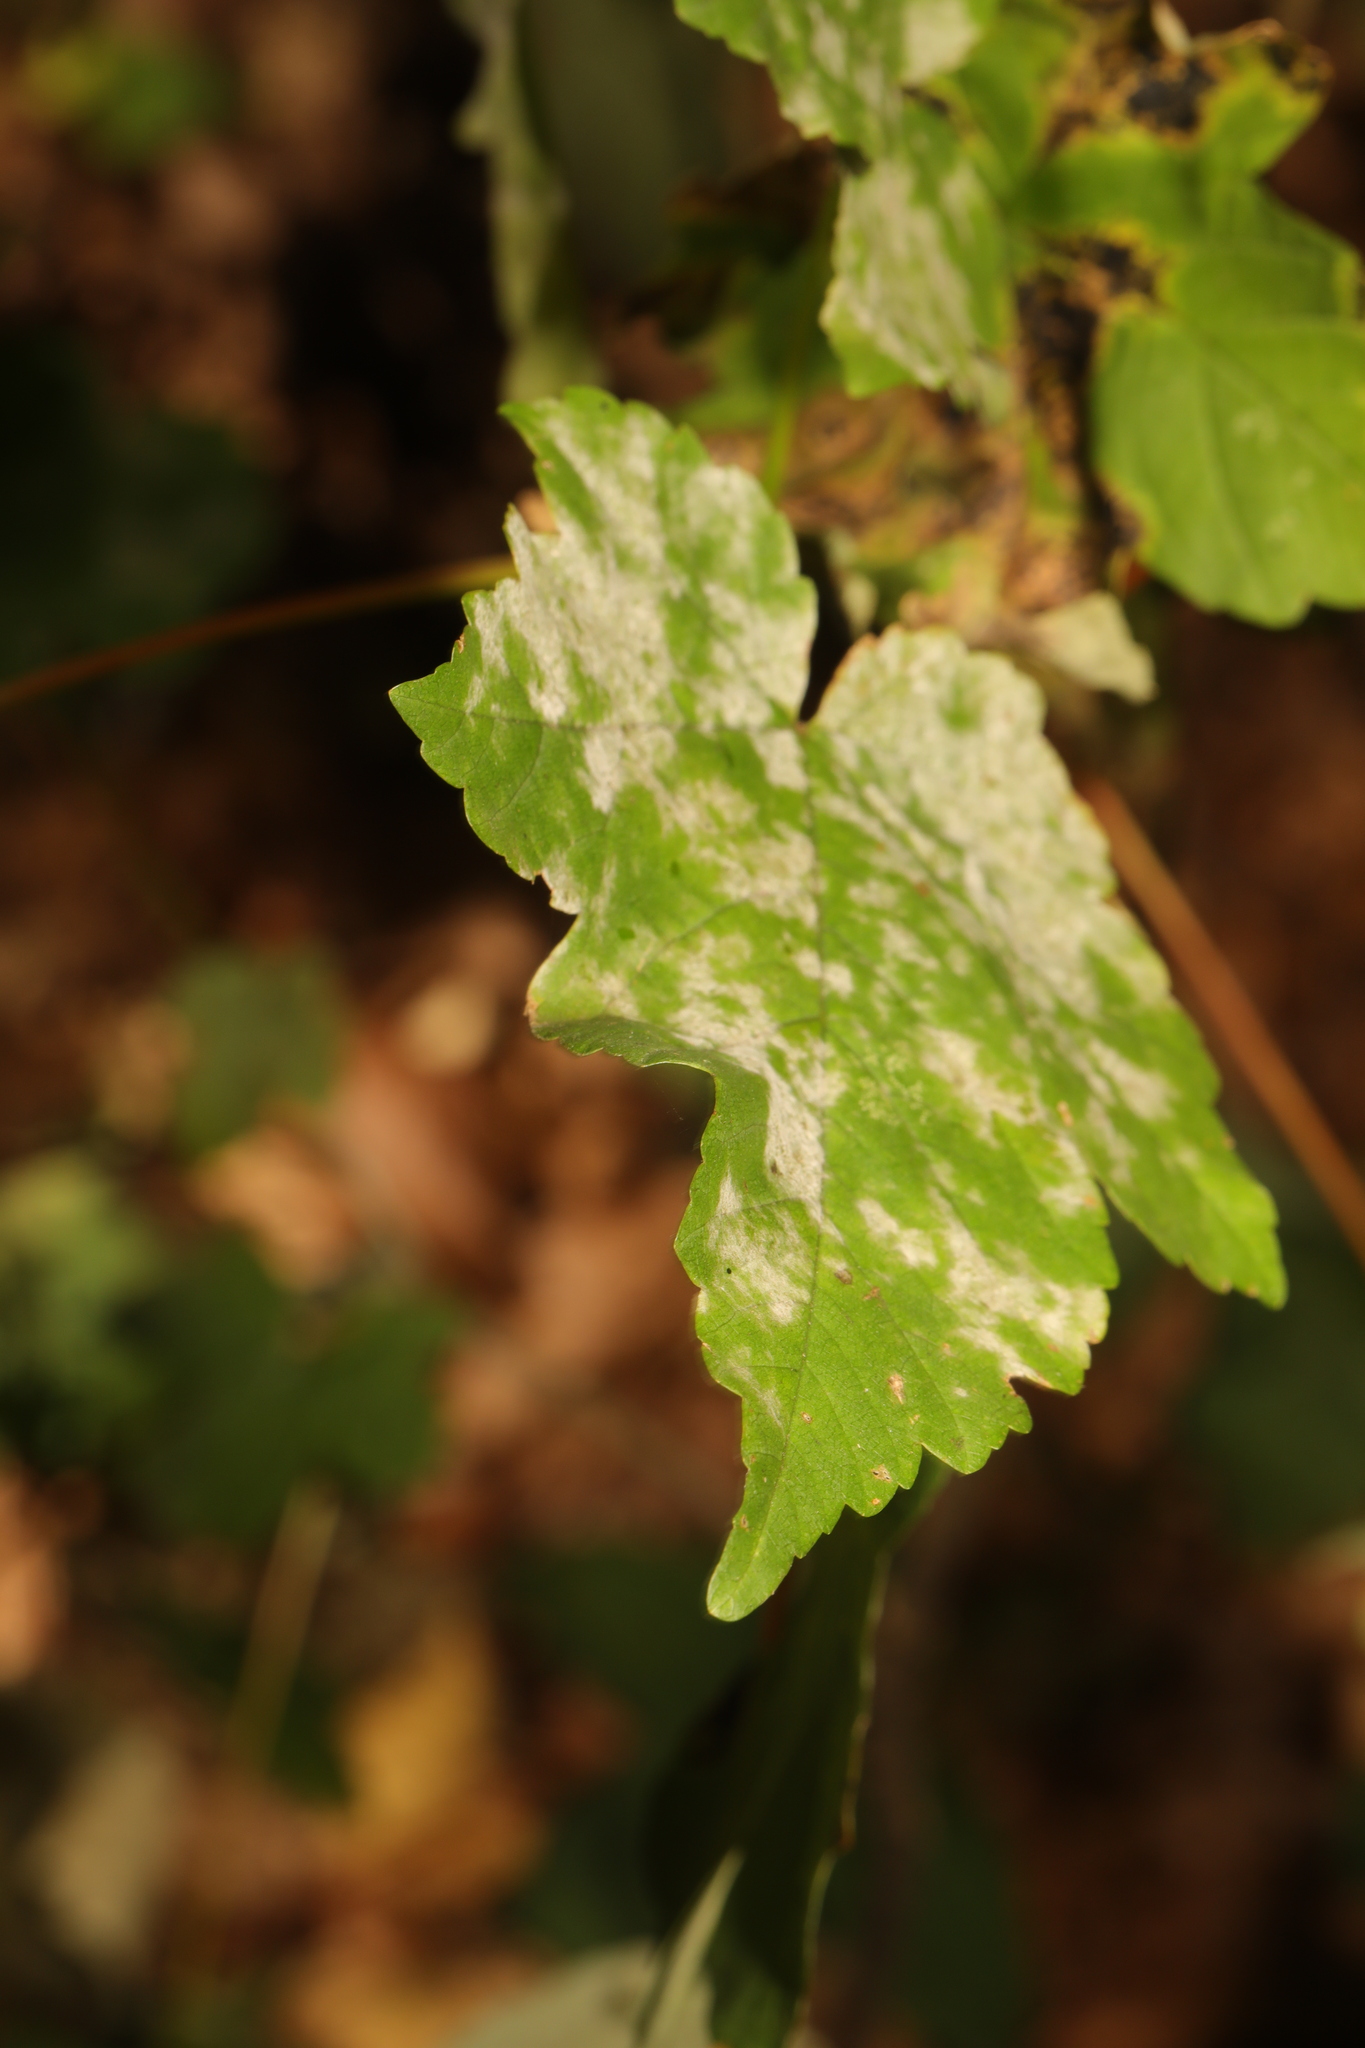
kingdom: Fungi
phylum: Ascomycota
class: Leotiomycetes
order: Helotiales
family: Erysiphaceae
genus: Sawadaea
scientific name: Sawadaea bicornis
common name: Maple mildew
